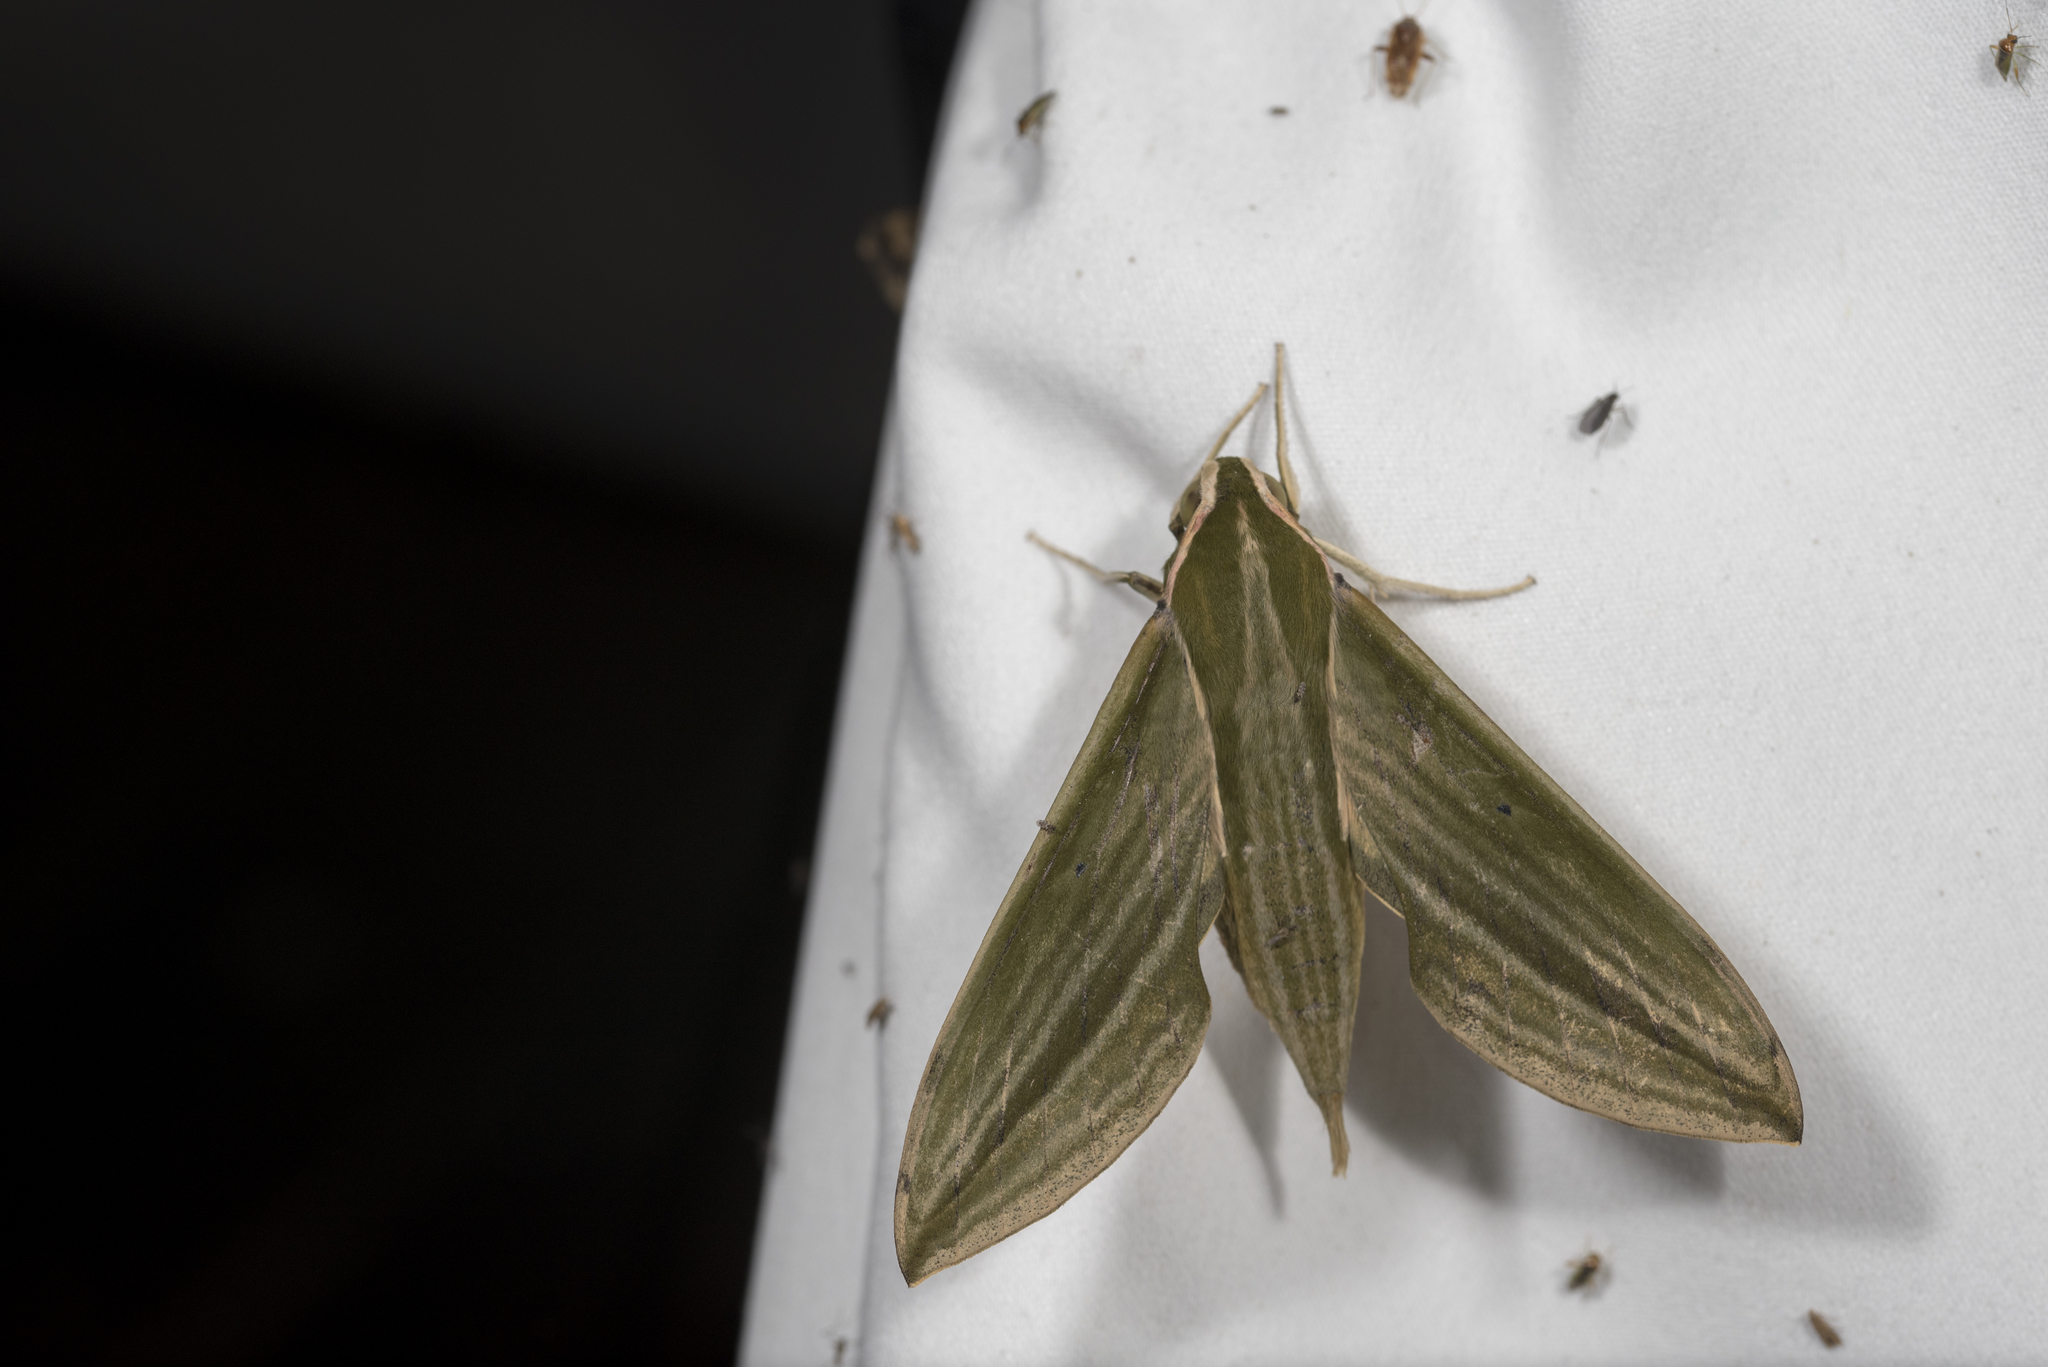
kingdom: Animalia
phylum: Arthropoda
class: Insecta
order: Lepidoptera
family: Sphingidae
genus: Cechetra
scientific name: Cechetra subangustata
